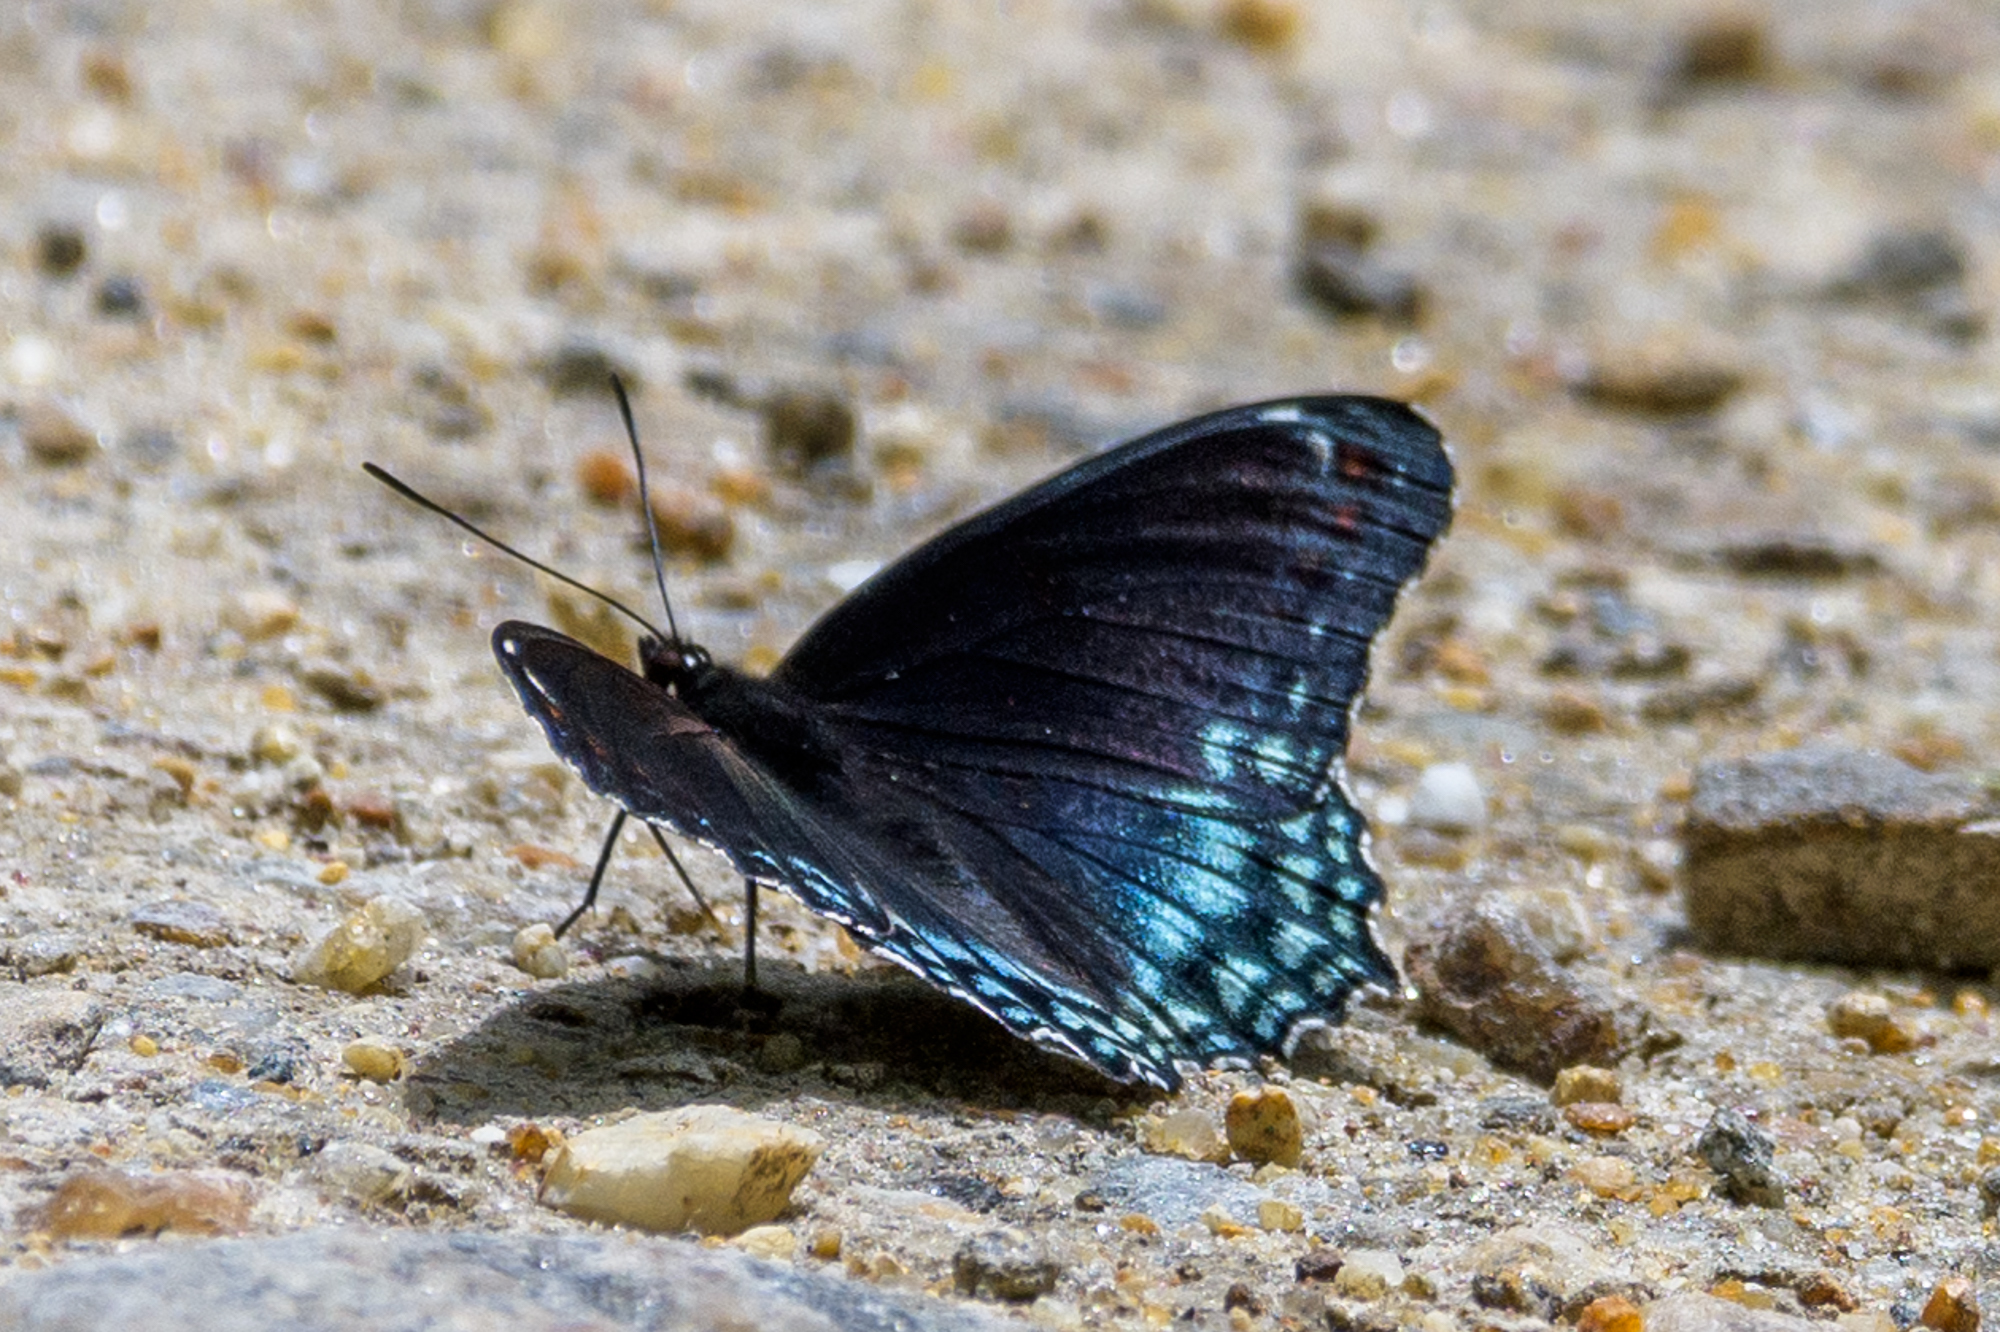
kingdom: Animalia
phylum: Arthropoda
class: Insecta
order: Lepidoptera
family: Nymphalidae
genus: Limenitis
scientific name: Limenitis astyanax
